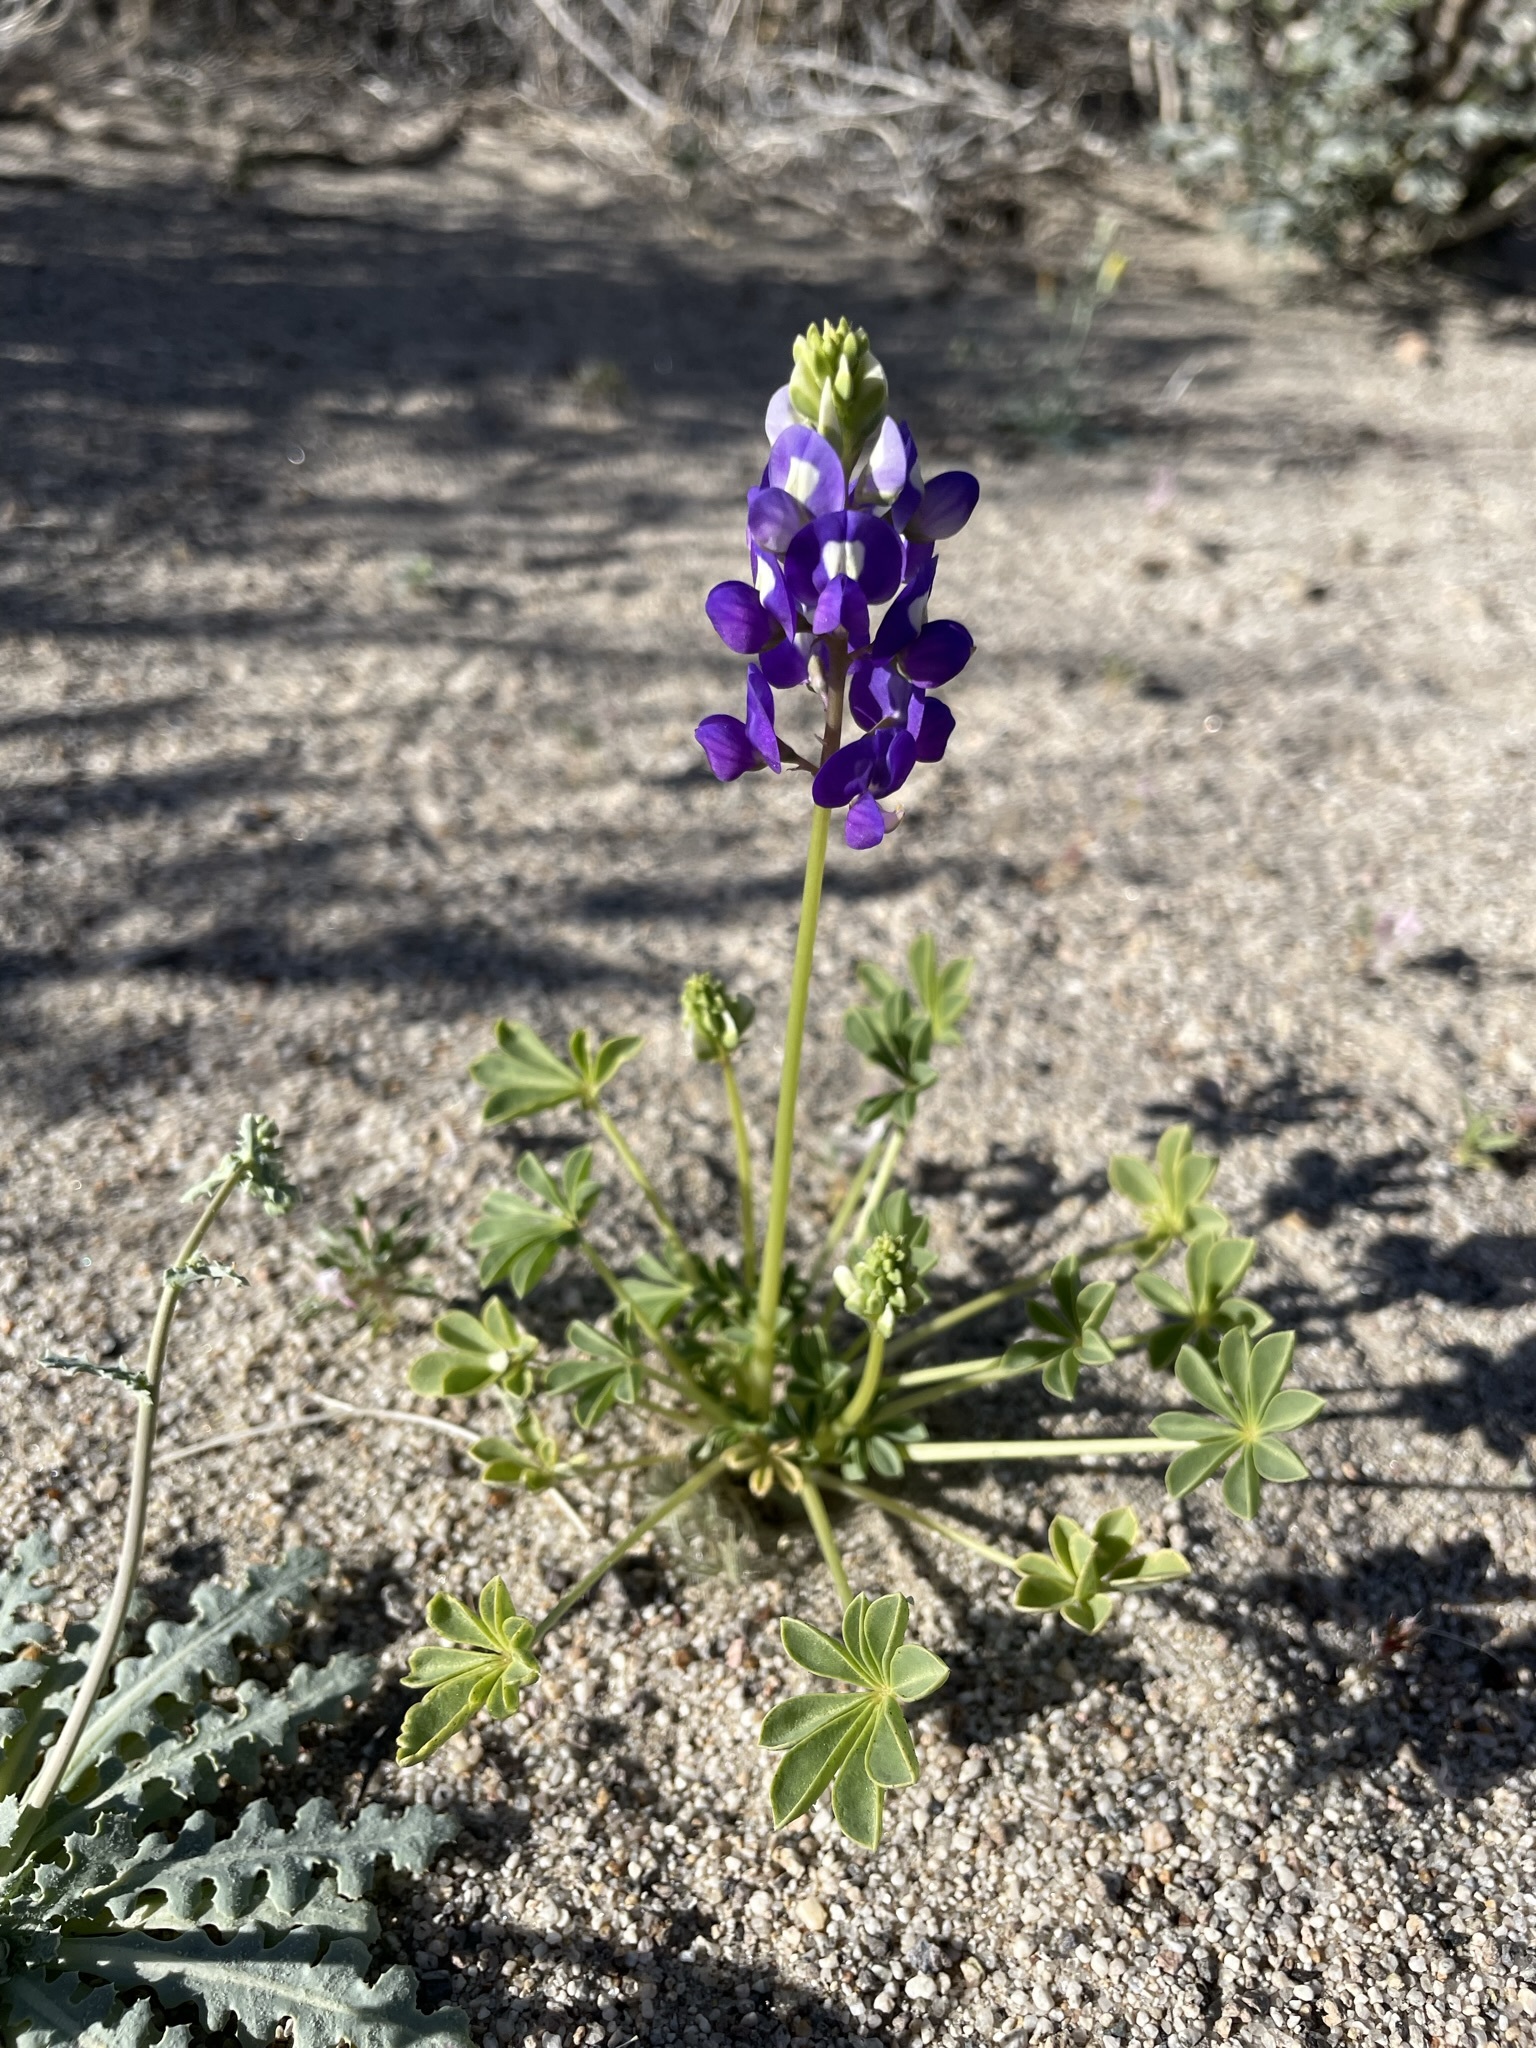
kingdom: Plantae
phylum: Tracheophyta
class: Magnoliopsida
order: Fabales
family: Fabaceae
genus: Lupinus
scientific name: Lupinus
